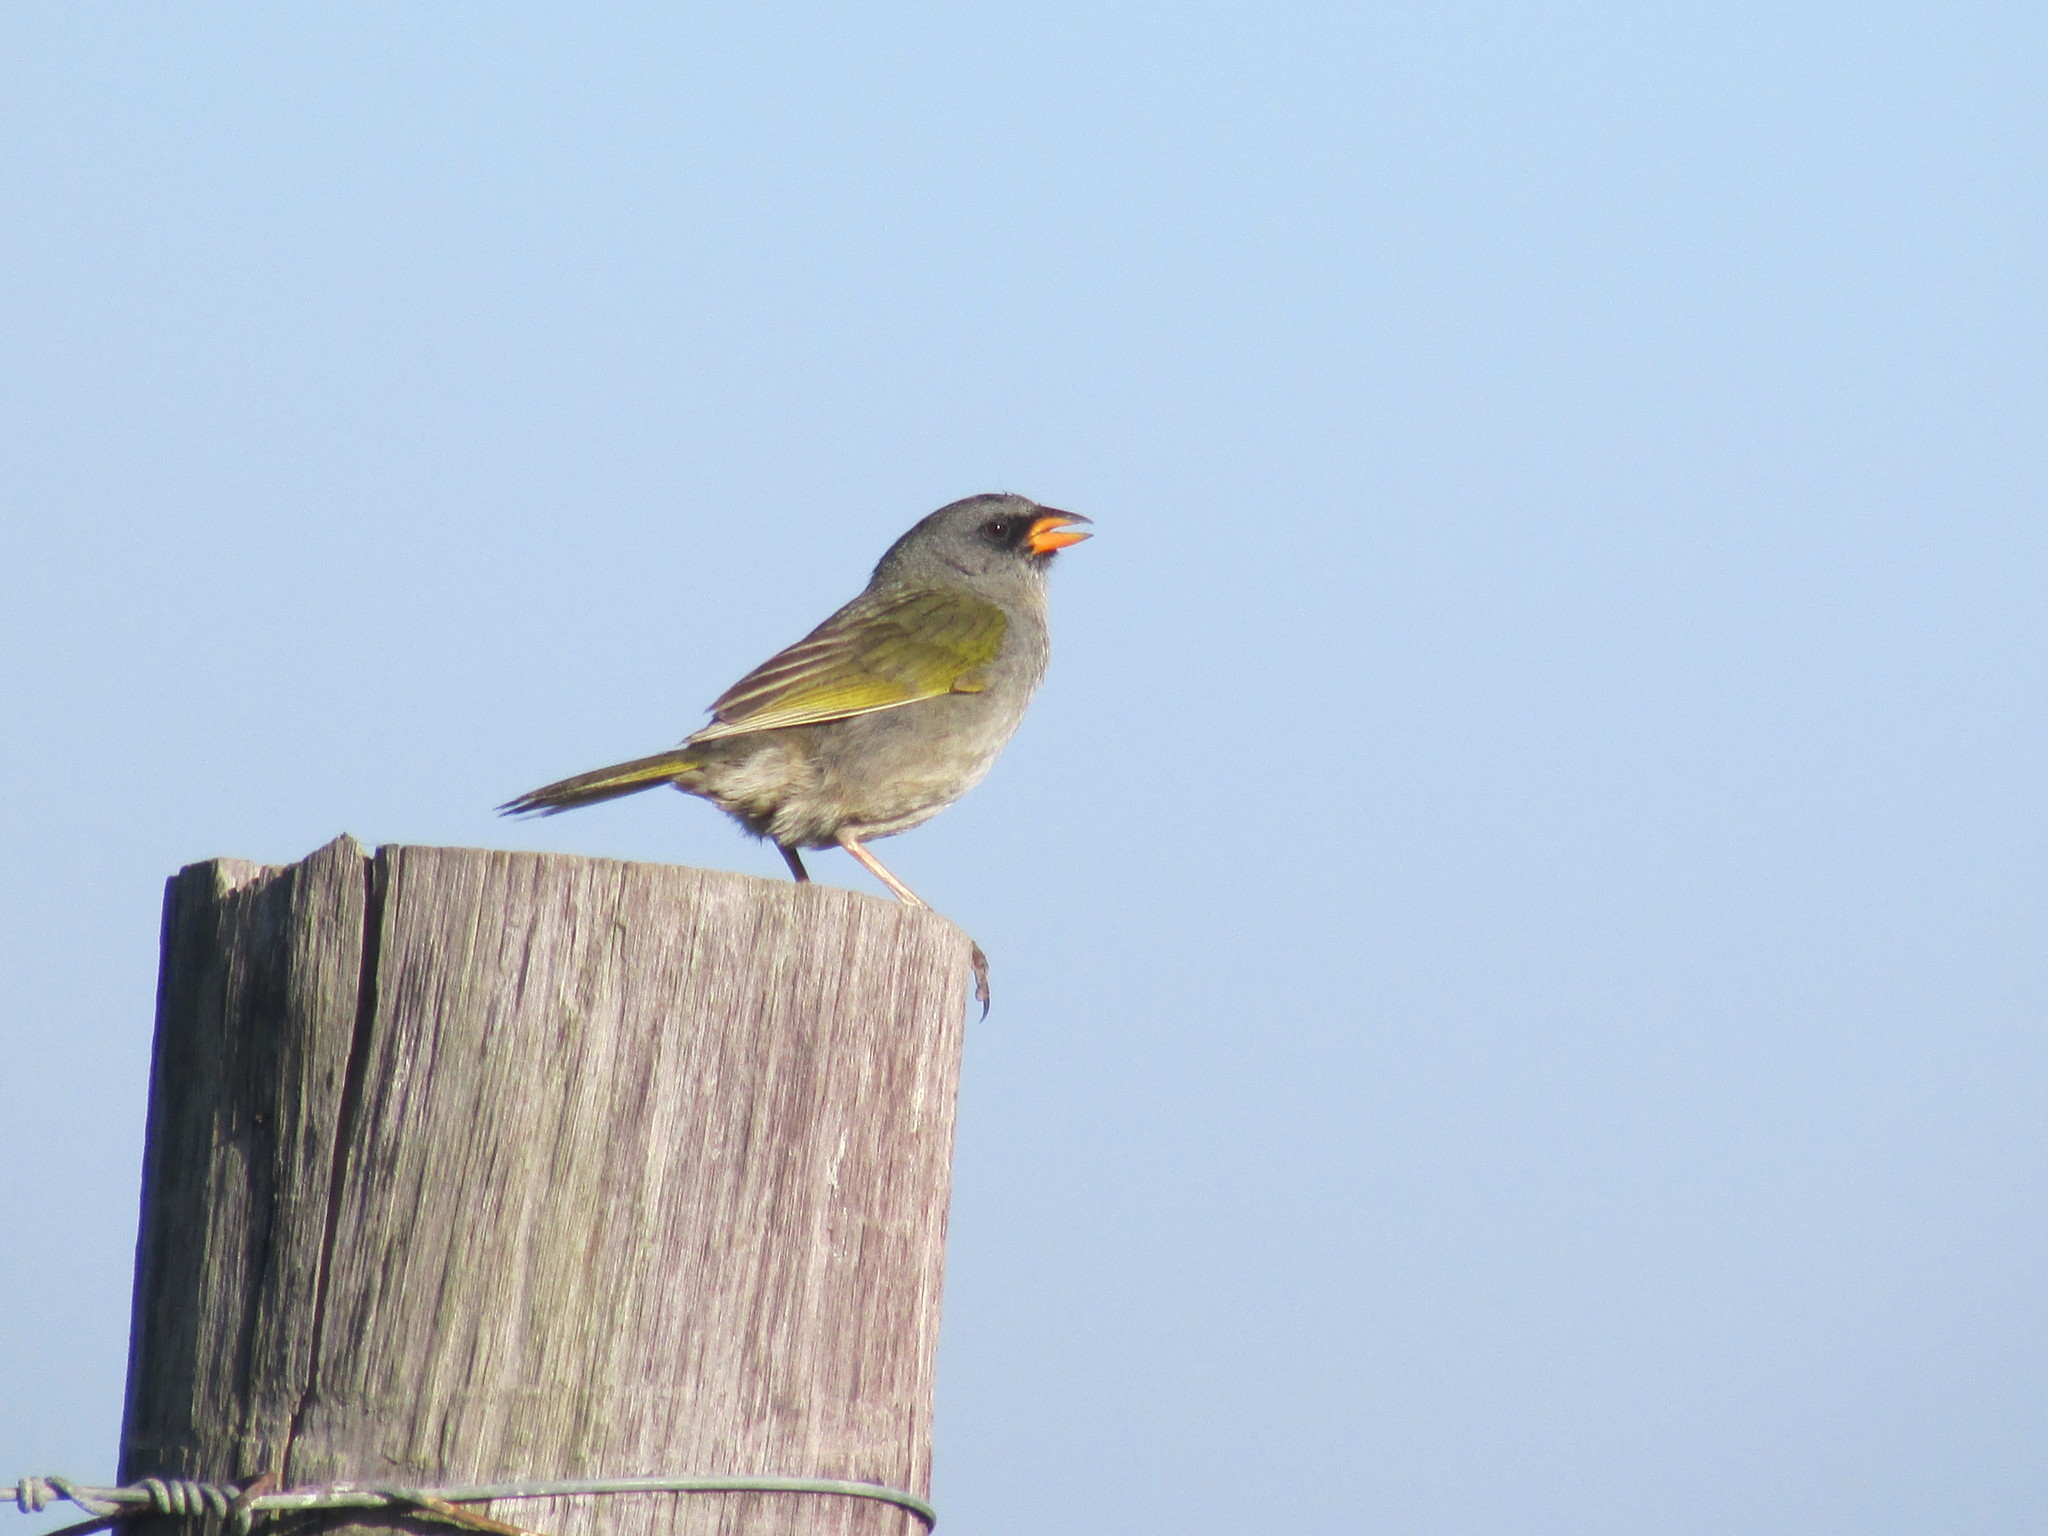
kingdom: Animalia
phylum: Chordata
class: Aves
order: Passeriformes
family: Thraupidae
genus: Embernagra
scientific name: Embernagra platensis
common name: Pampa finch
